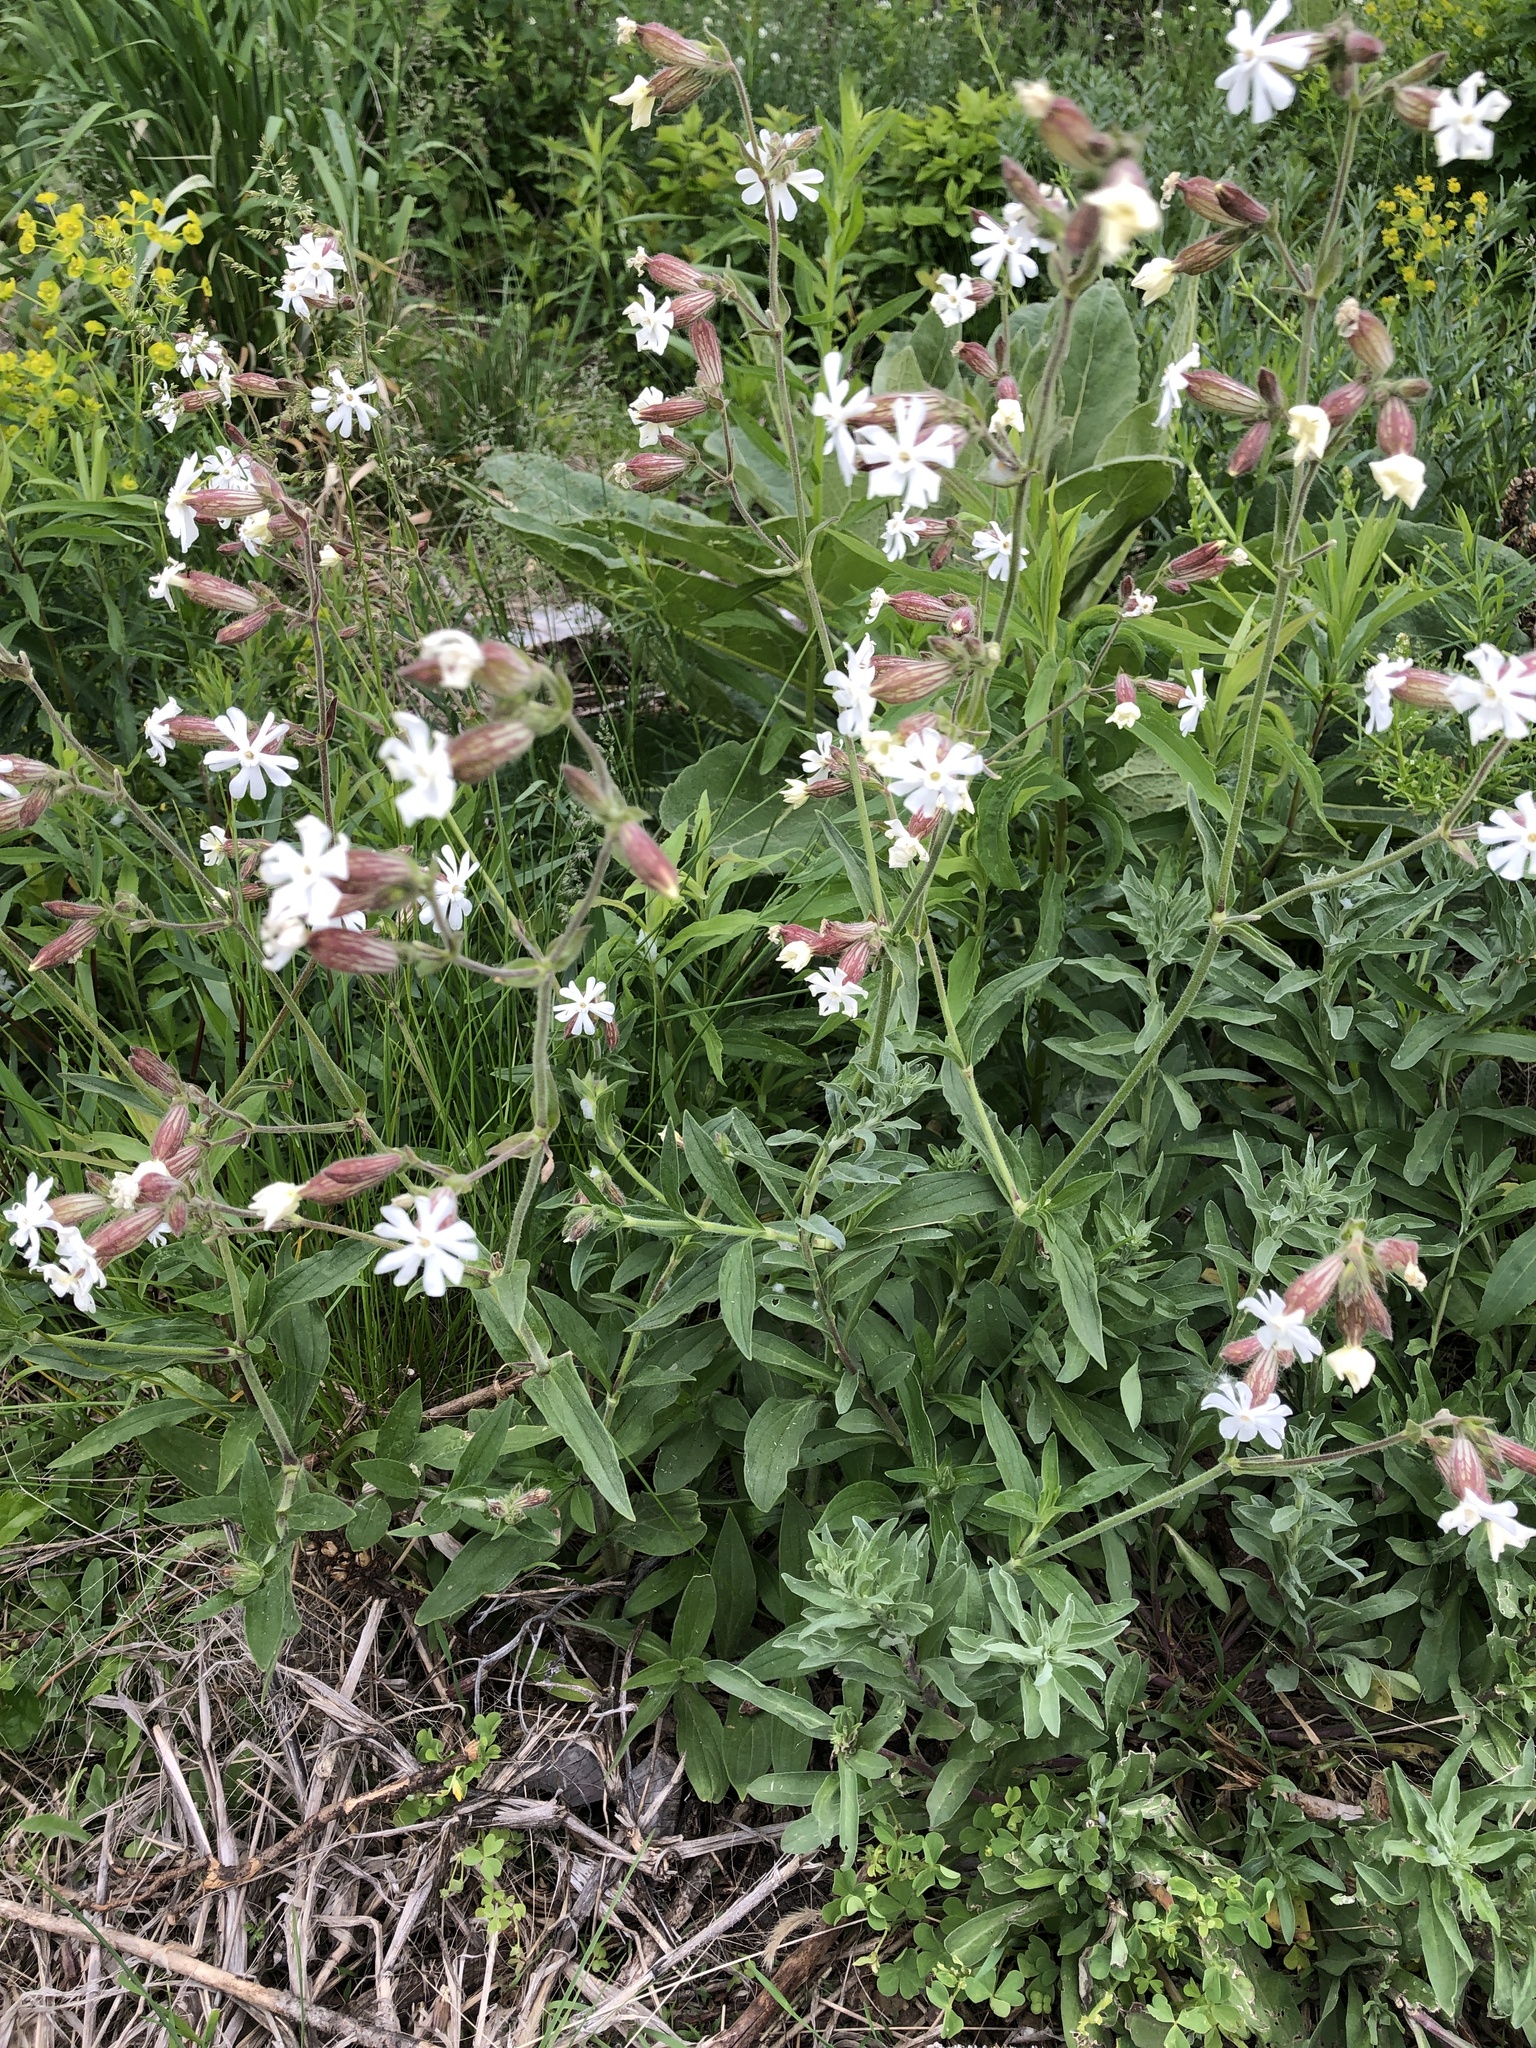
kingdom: Plantae
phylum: Tracheophyta
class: Magnoliopsida
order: Caryophyllales
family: Caryophyllaceae
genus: Silene
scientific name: Silene latifolia
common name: White campion
